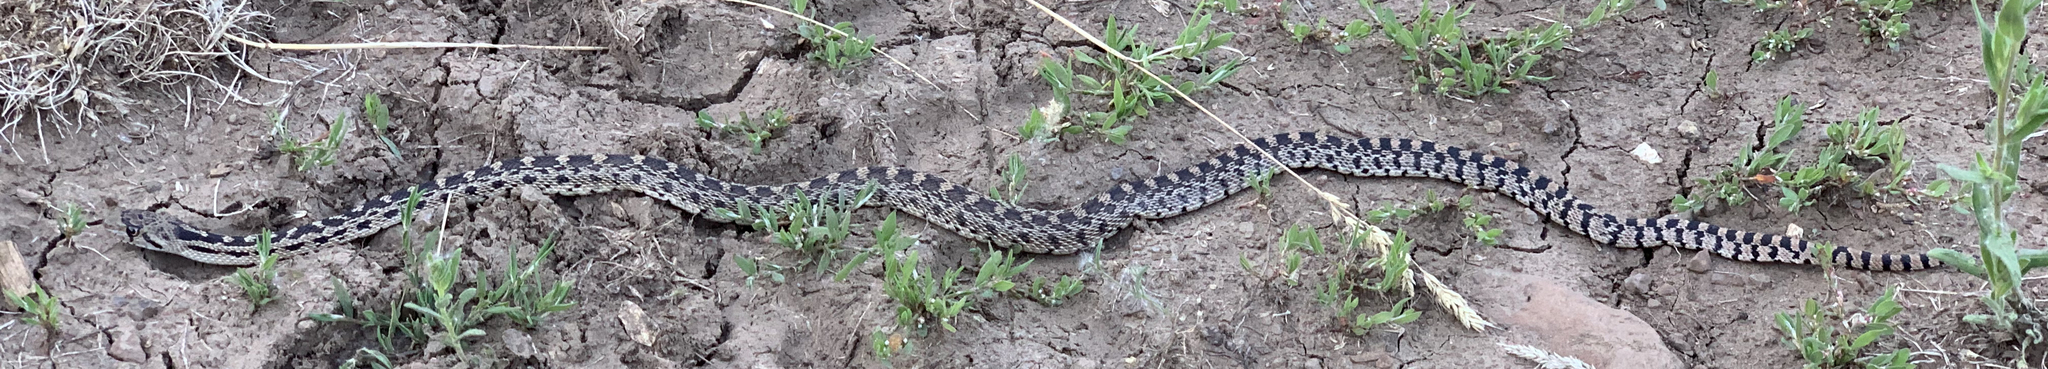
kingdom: Animalia
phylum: Chordata
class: Squamata
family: Colubridae
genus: Pituophis
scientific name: Pituophis catenifer
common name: Gopher snake
